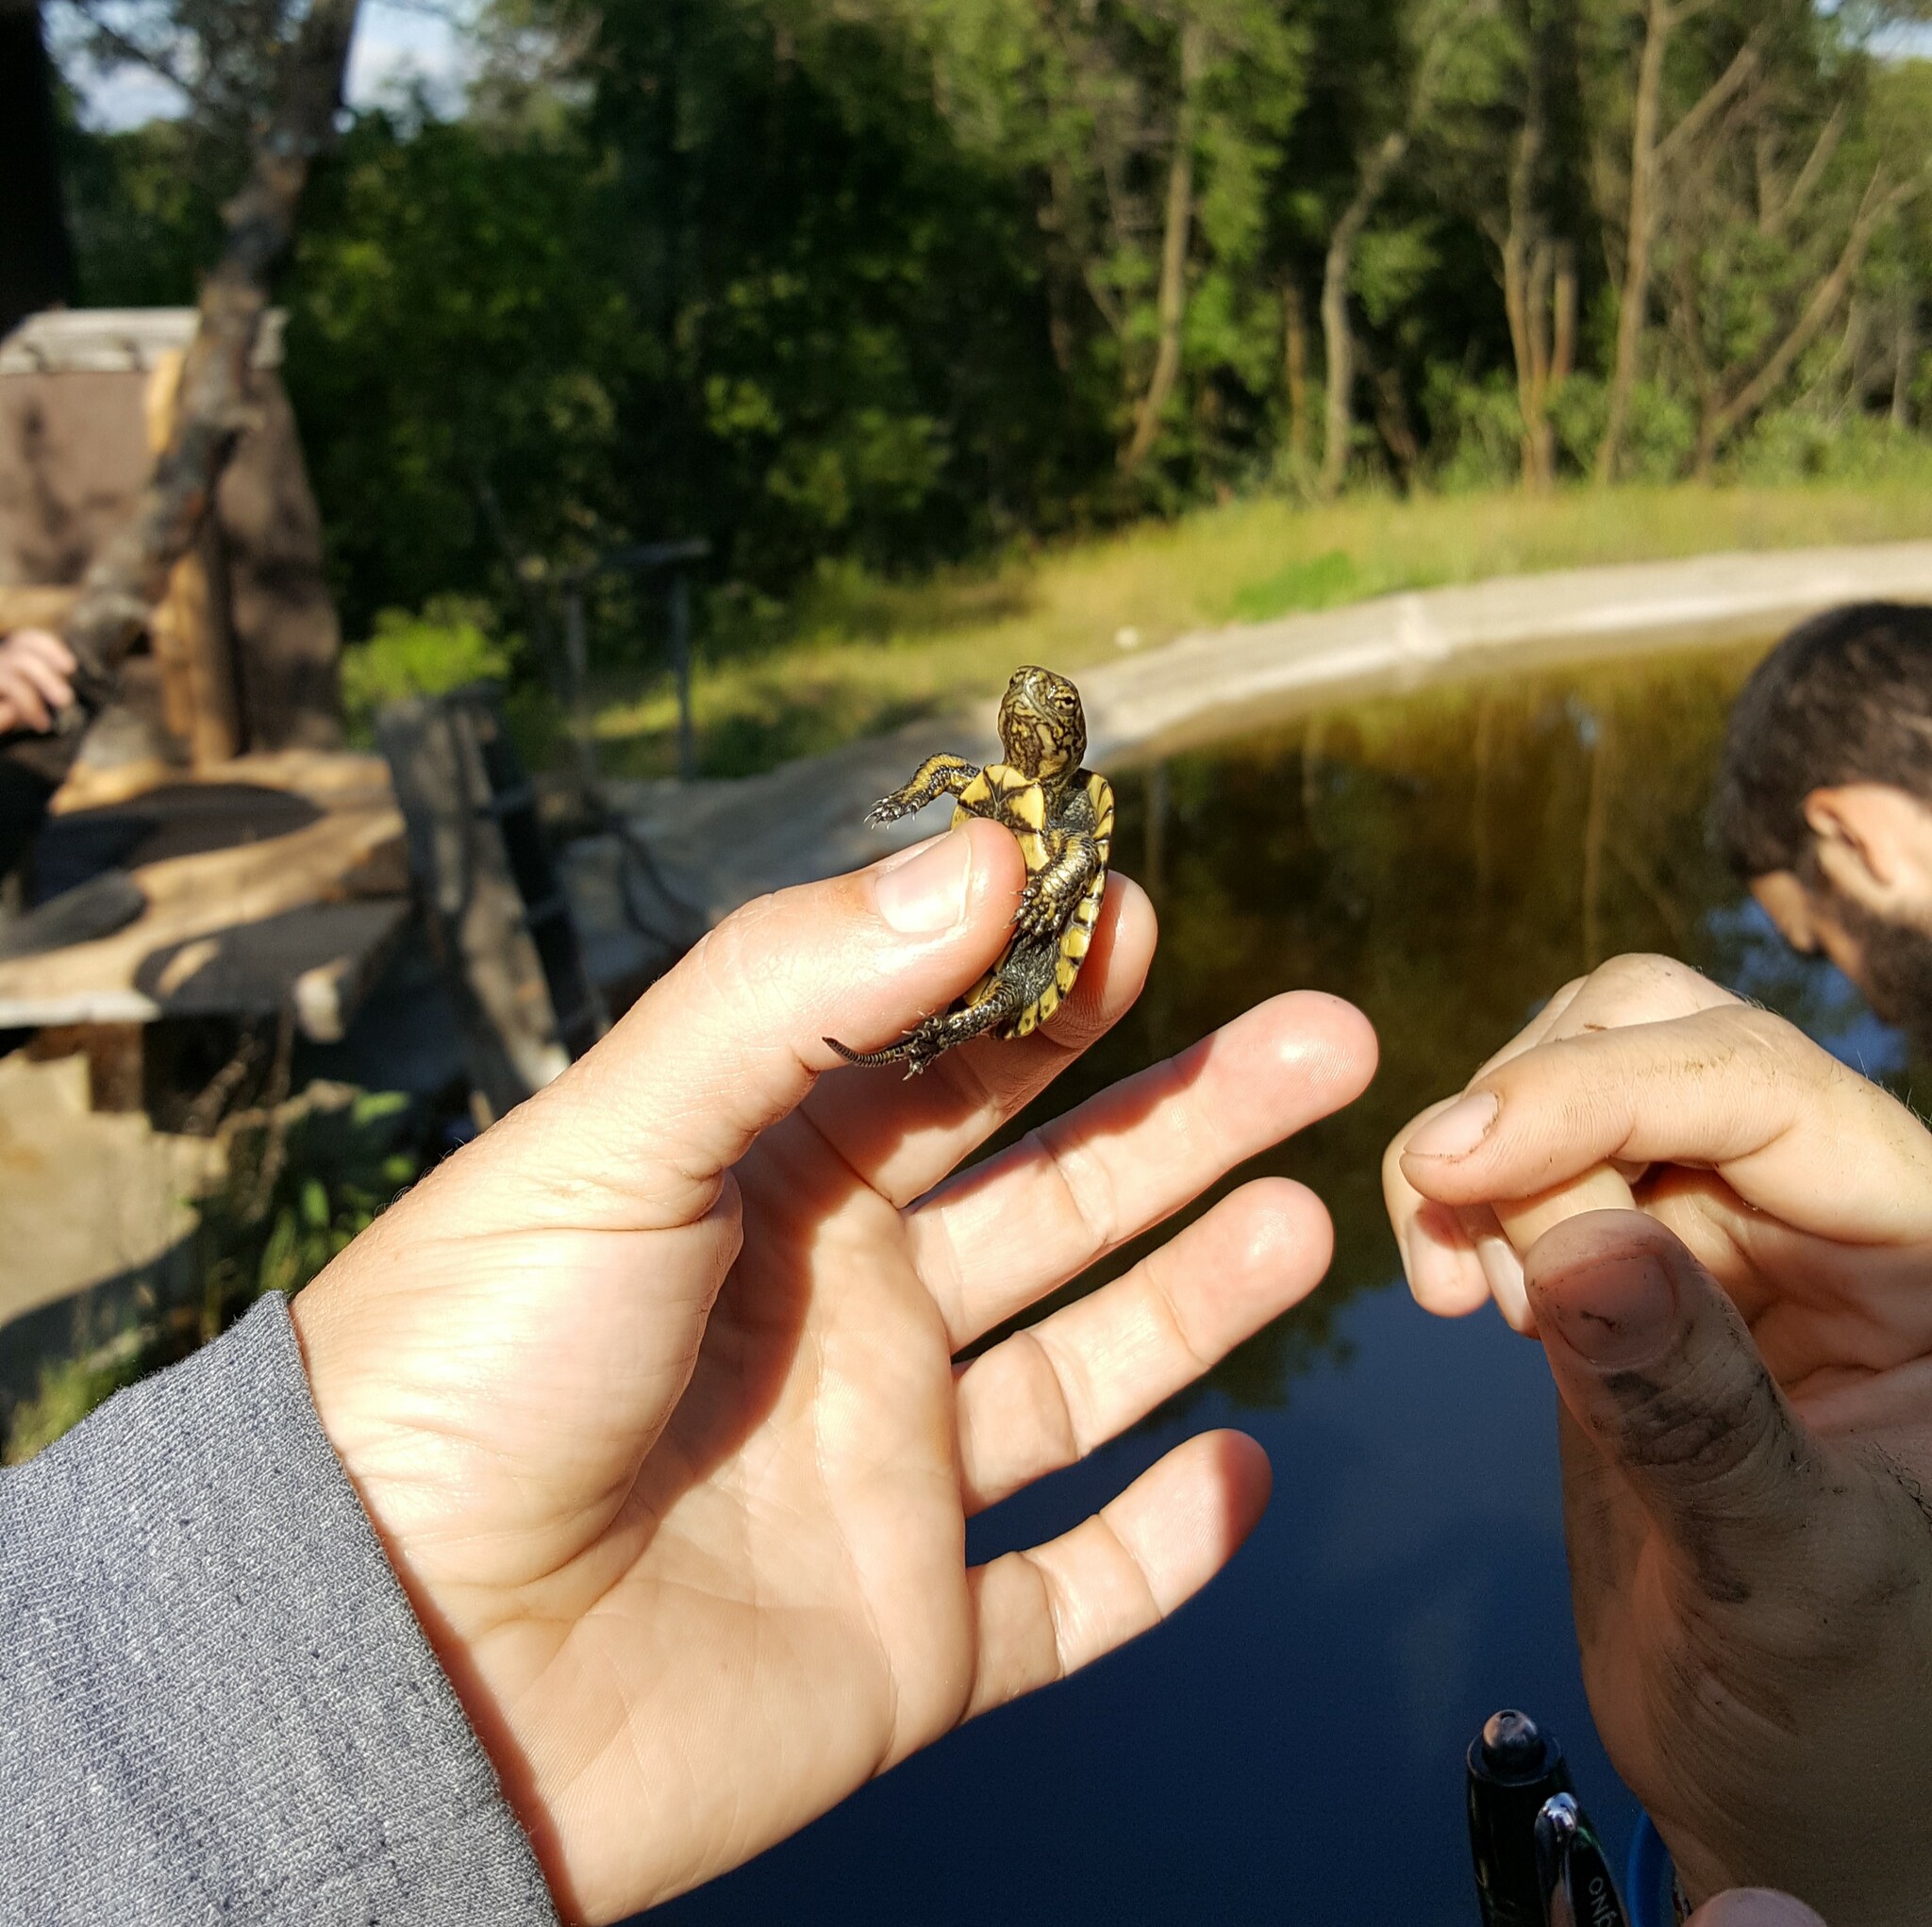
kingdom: Animalia
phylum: Chordata
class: Testudines
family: Emydidae
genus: Actinemys
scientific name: Actinemys marmorata
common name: Western pond turtle
